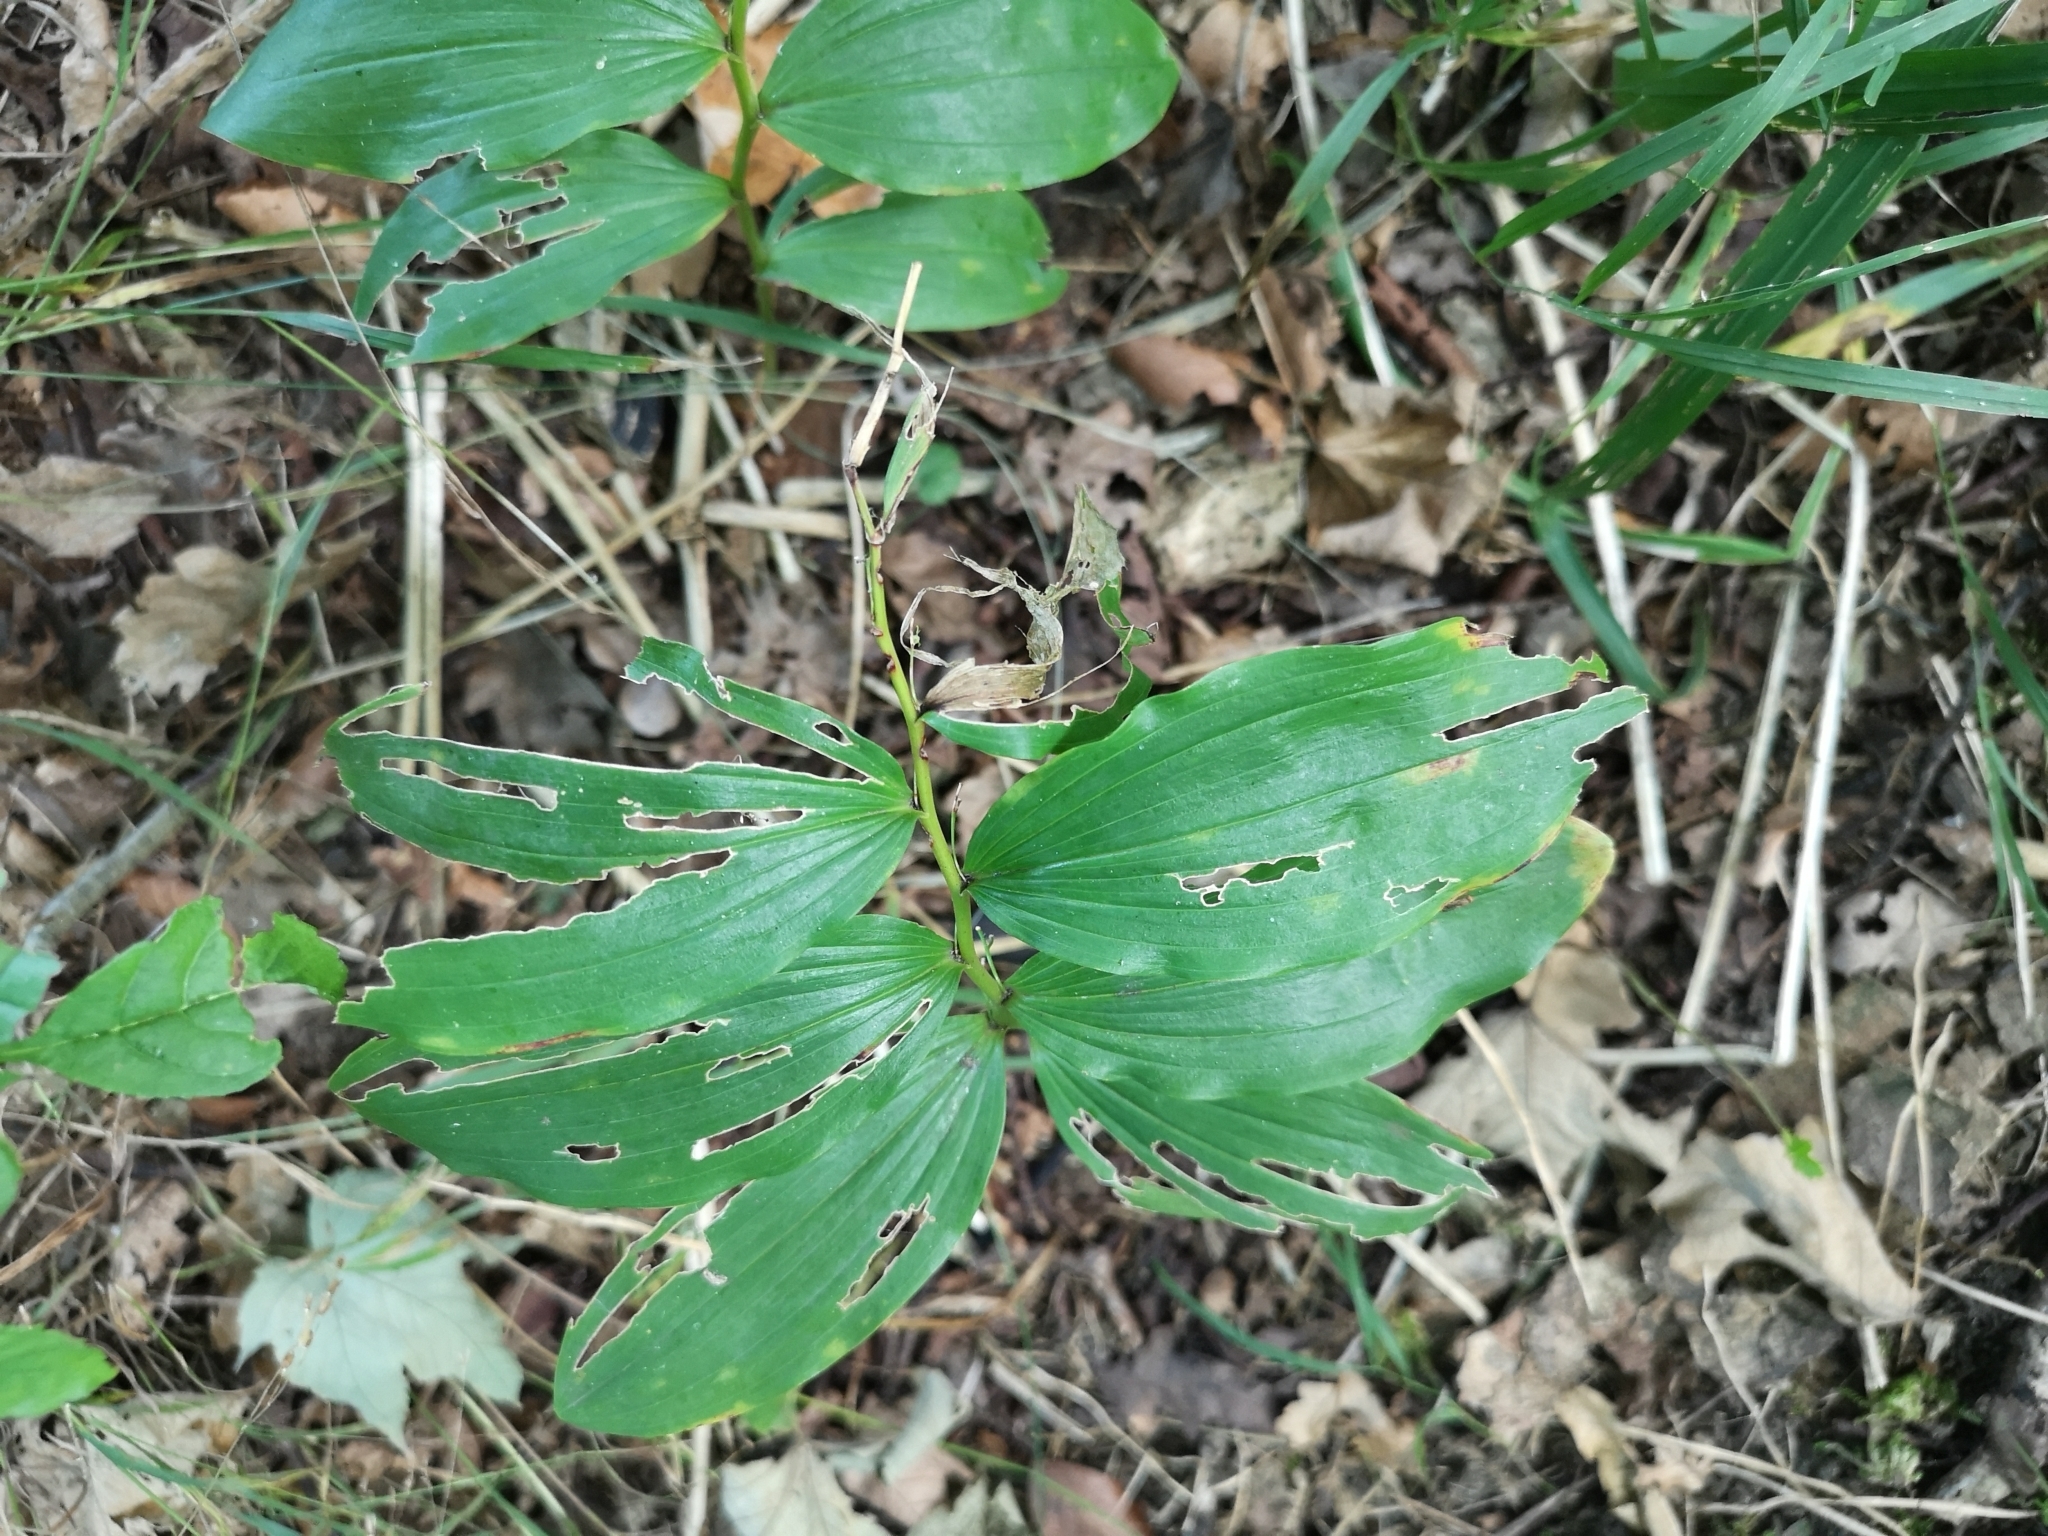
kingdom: Plantae
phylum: Tracheophyta
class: Liliopsida
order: Asparagales
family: Asparagaceae
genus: Polygonatum
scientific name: Polygonatum multiflorum
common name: Solomon's-seal
